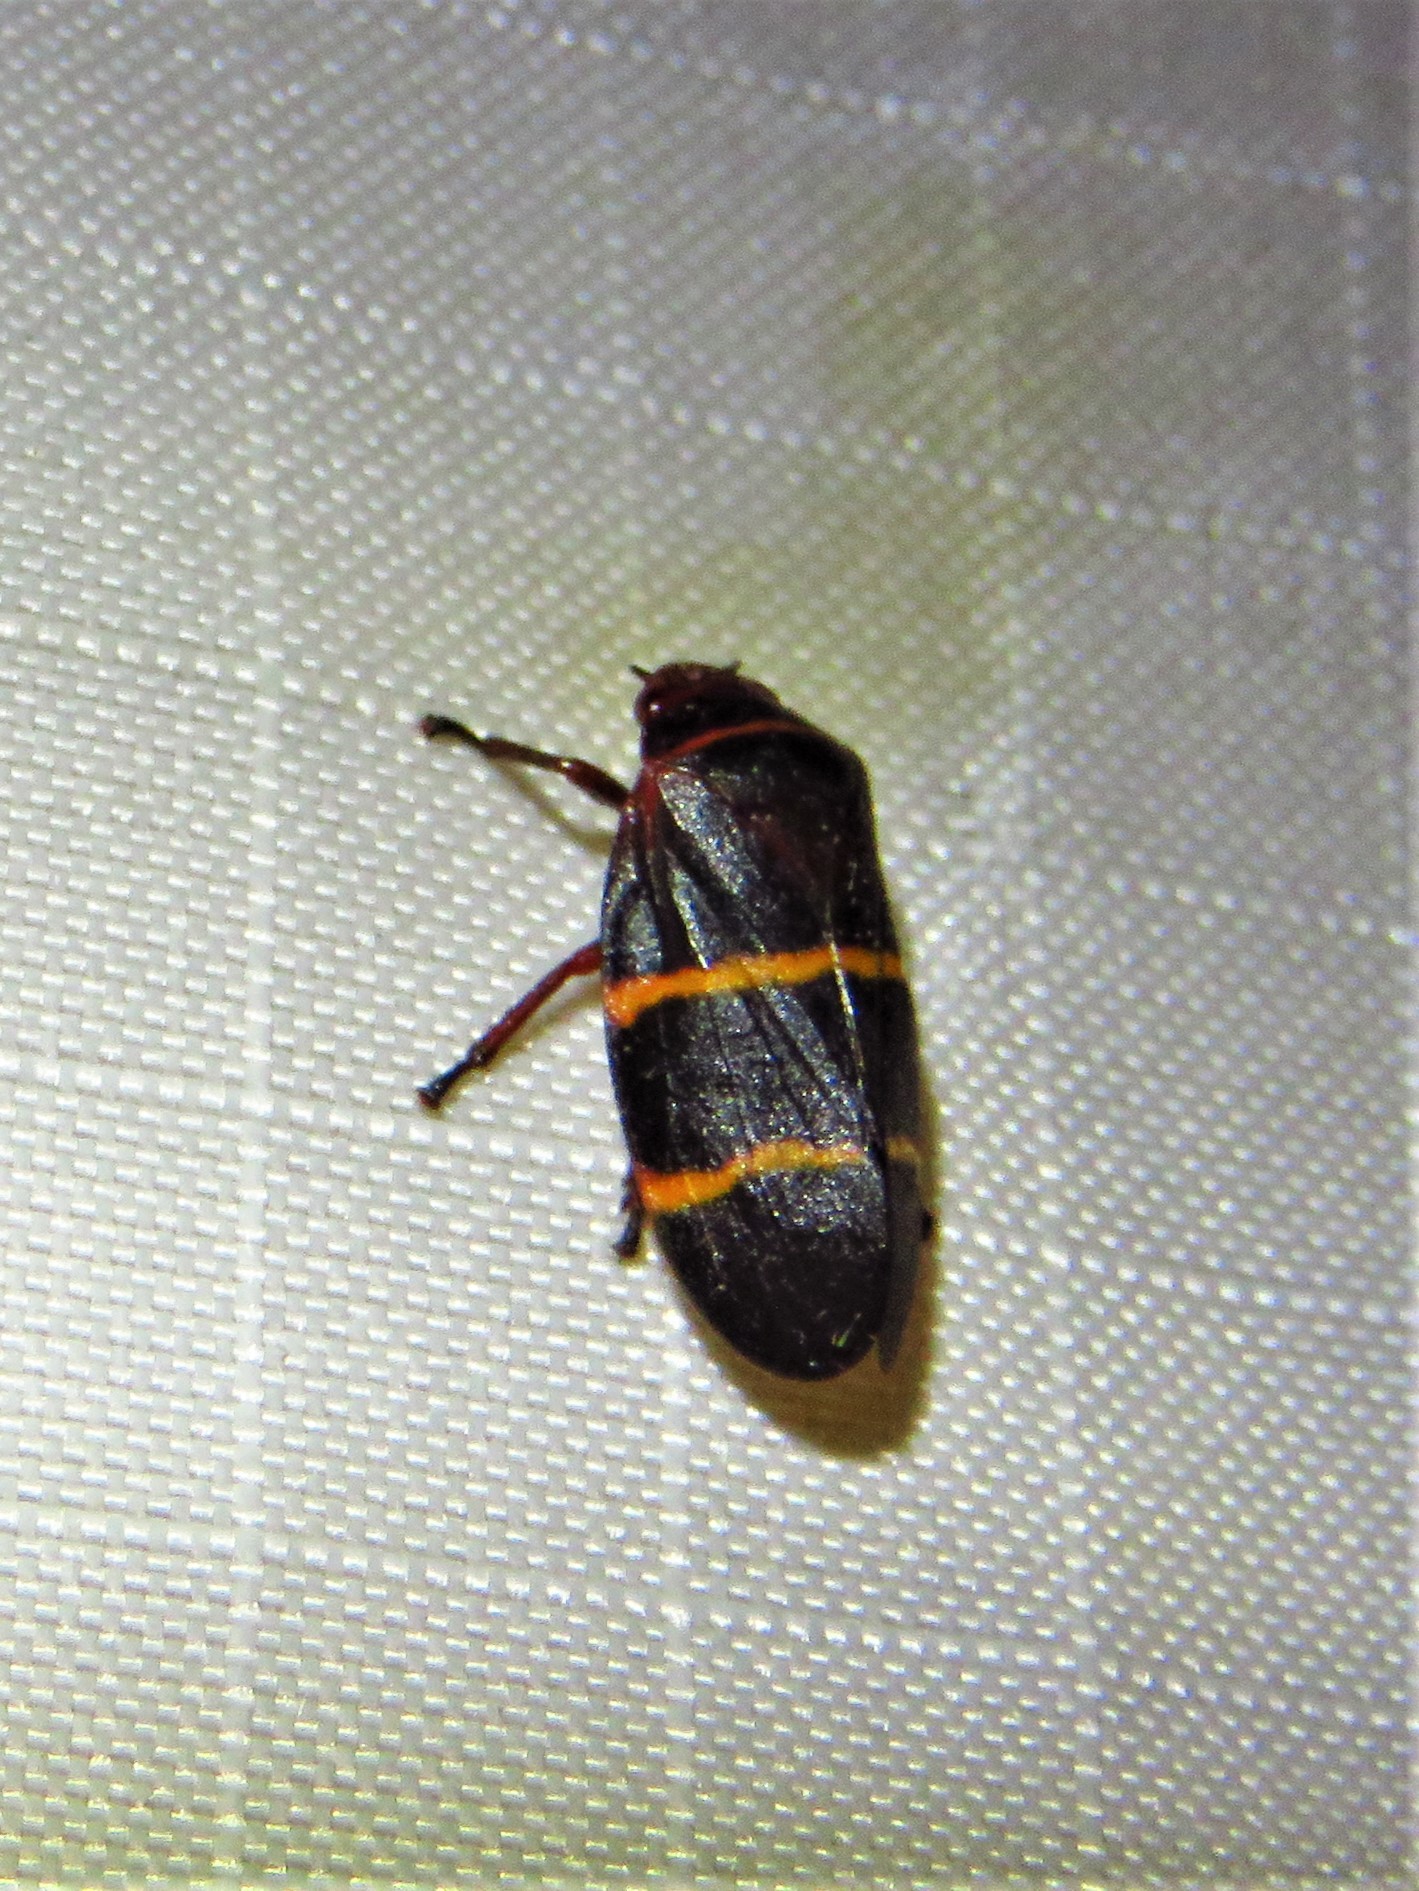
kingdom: Animalia
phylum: Arthropoda
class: Insecta
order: Hemiptera
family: Cercopidae
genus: Prosapia
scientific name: Prosapia bicincta
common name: Twolined spittlebug
